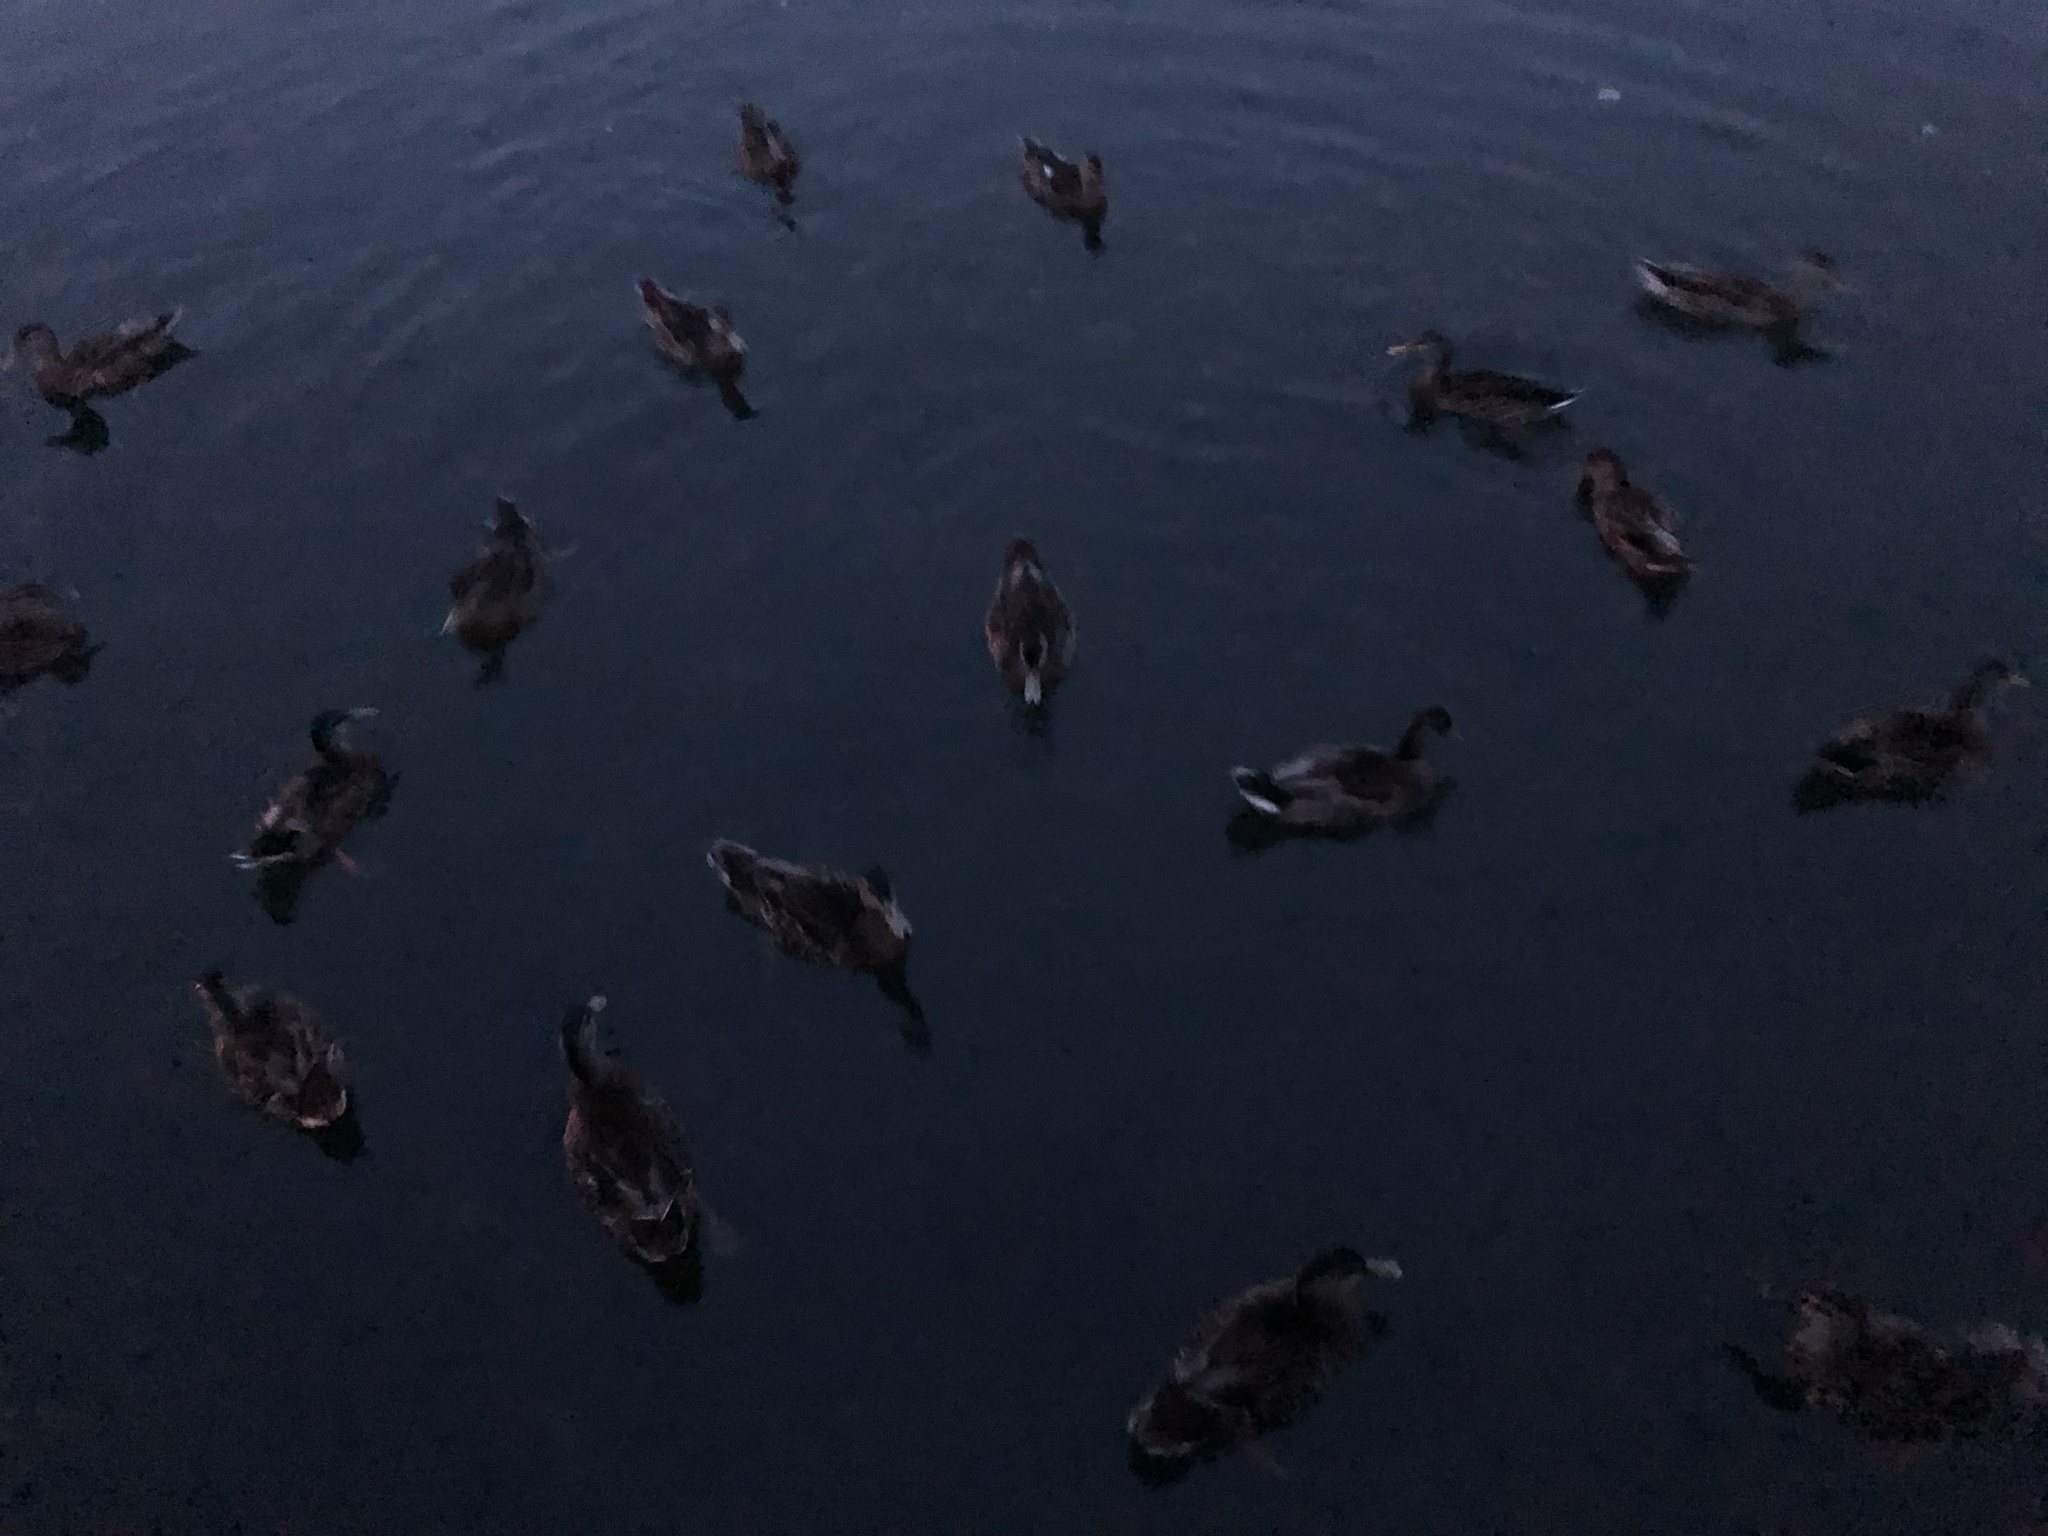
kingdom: Animalia
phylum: Chordata
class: Aves
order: Anseriformes
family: Anatidae
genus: Anas
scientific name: Anas platyrhynchos
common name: Mallard
